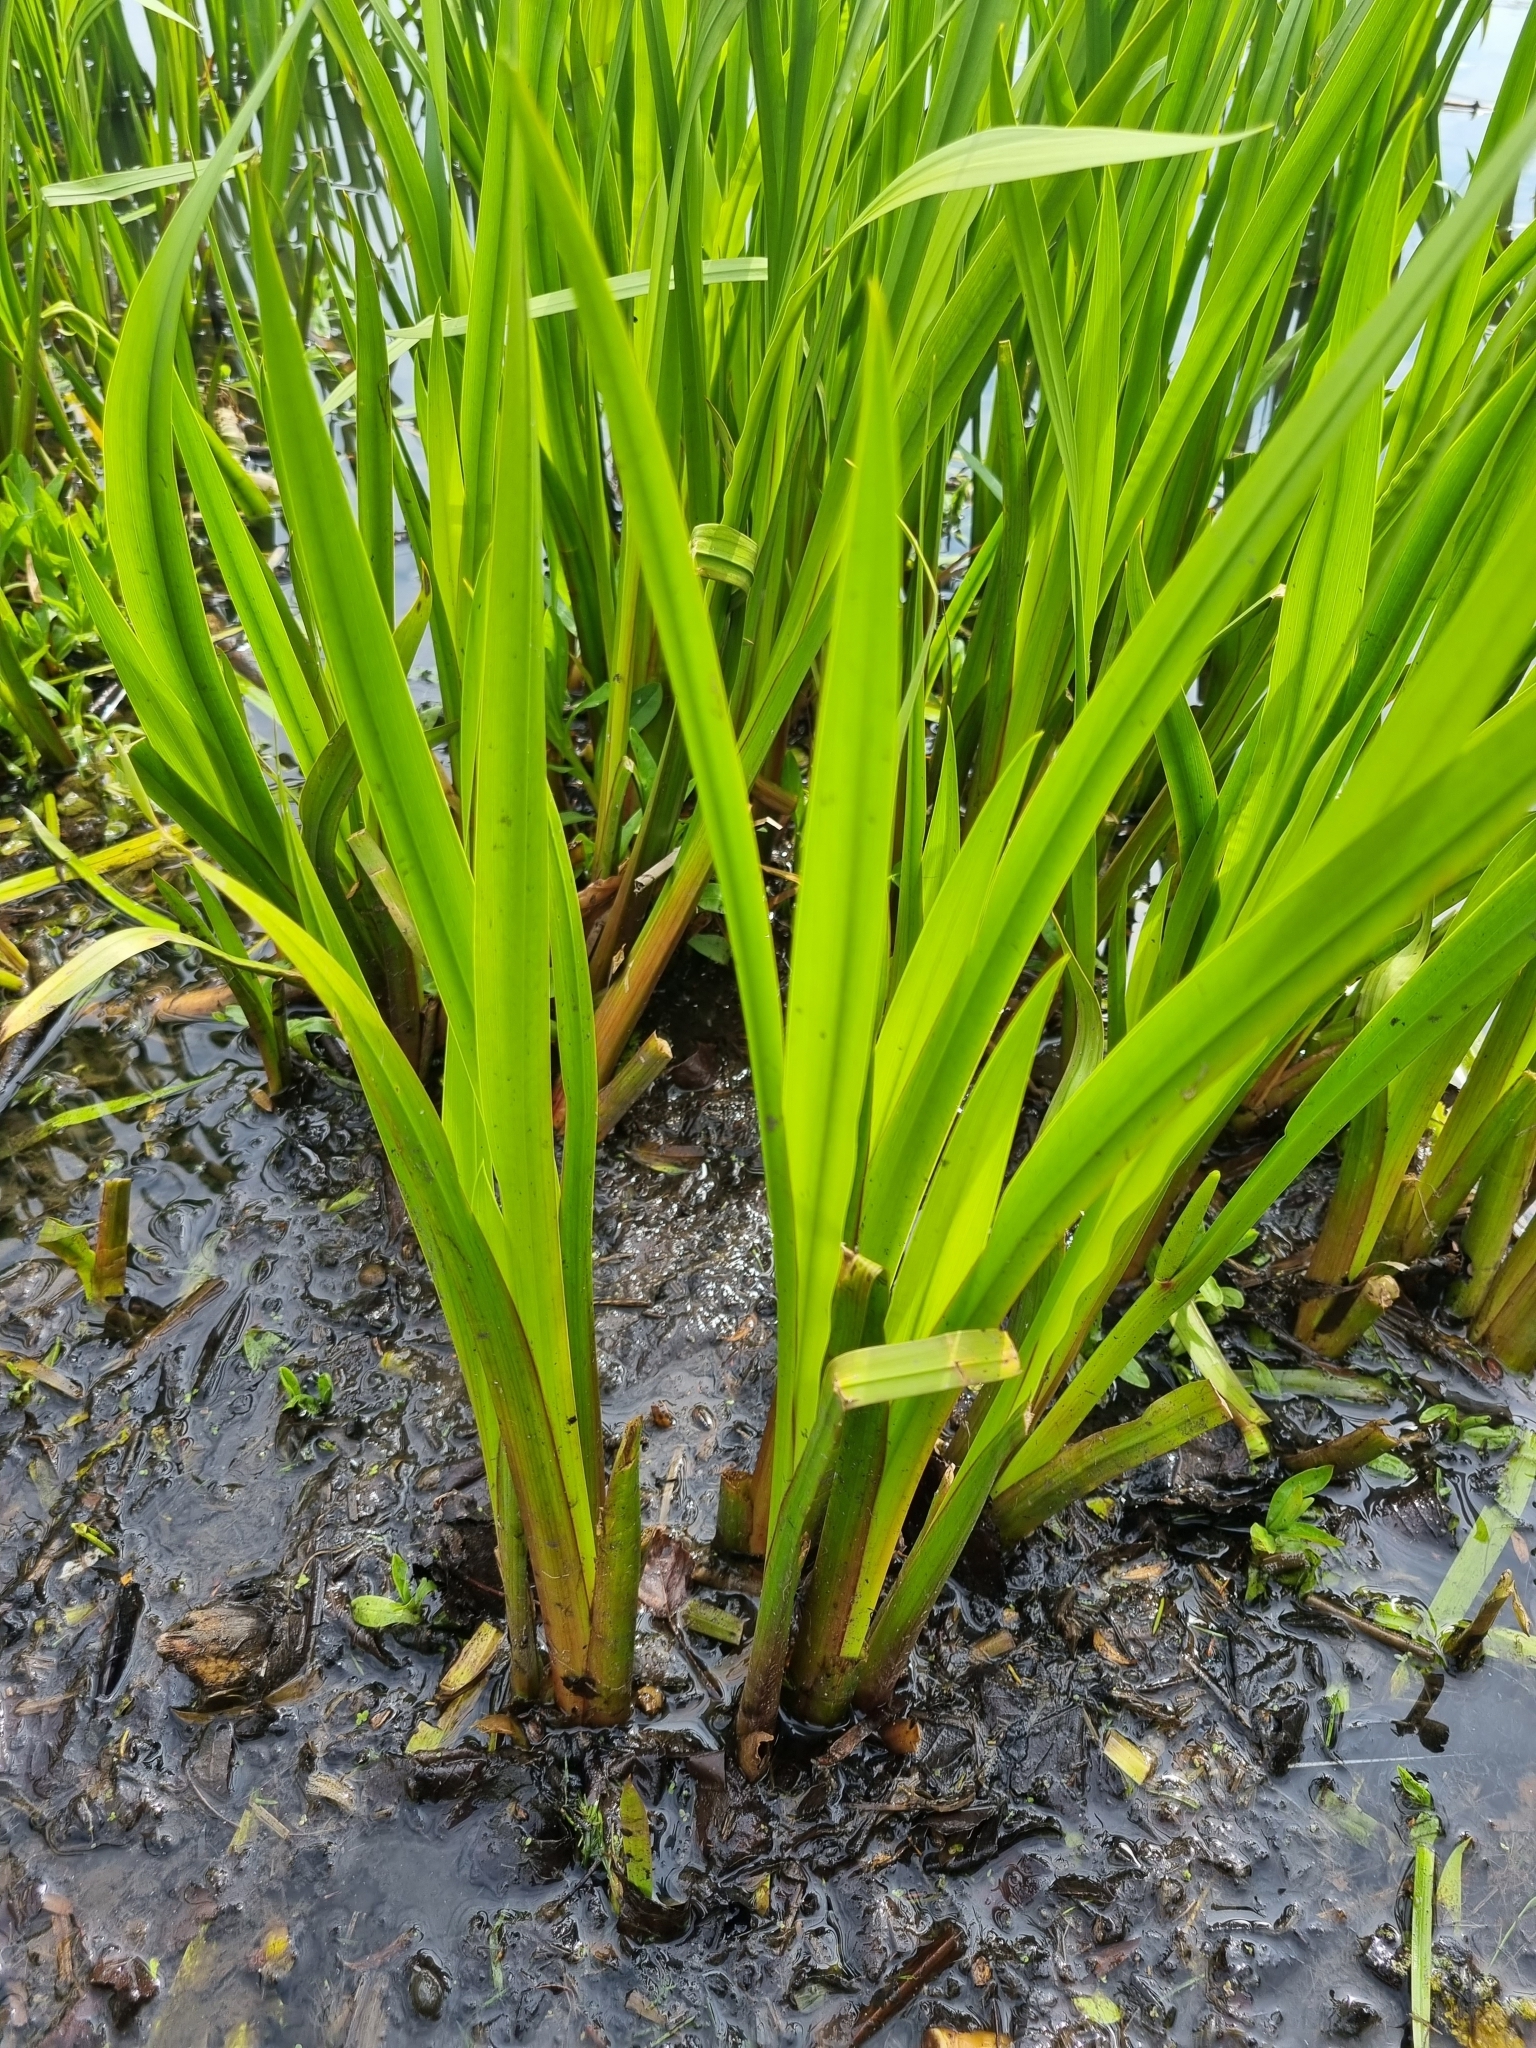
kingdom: Plantae
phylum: Tracheophyta
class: Liliopsida
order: Acorales
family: Acoraceae
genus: Acorus
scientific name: Acorus calamus
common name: Sweet-flag
